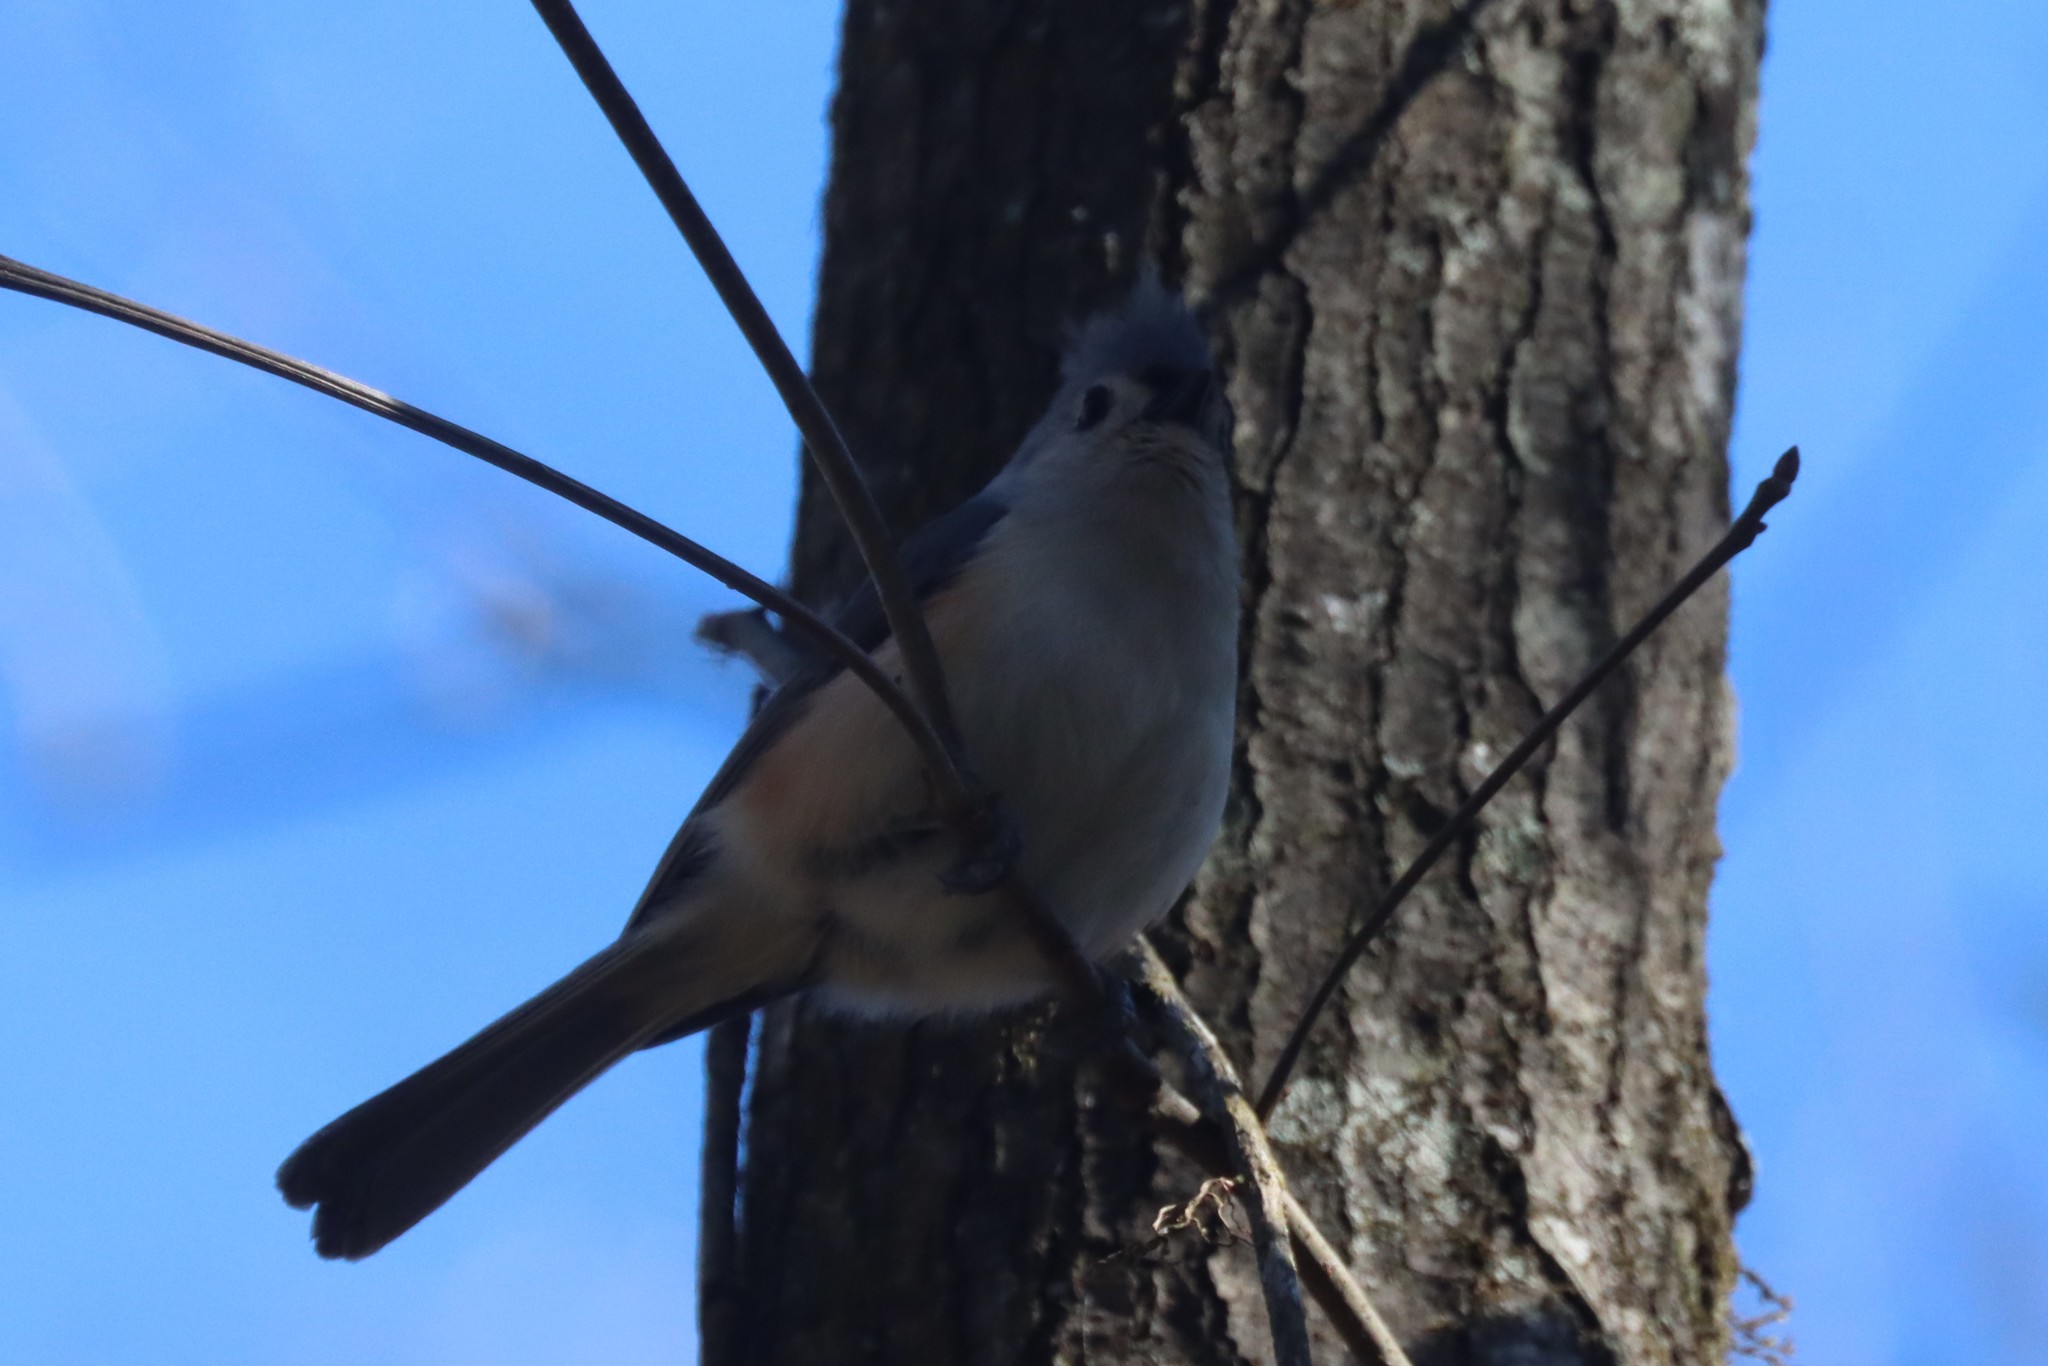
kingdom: Animalia
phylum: Chordata
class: Aves
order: Passeriformes
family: Paridae
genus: Baeolophus
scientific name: Baeolophus bicolor
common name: Tufted titmouse
